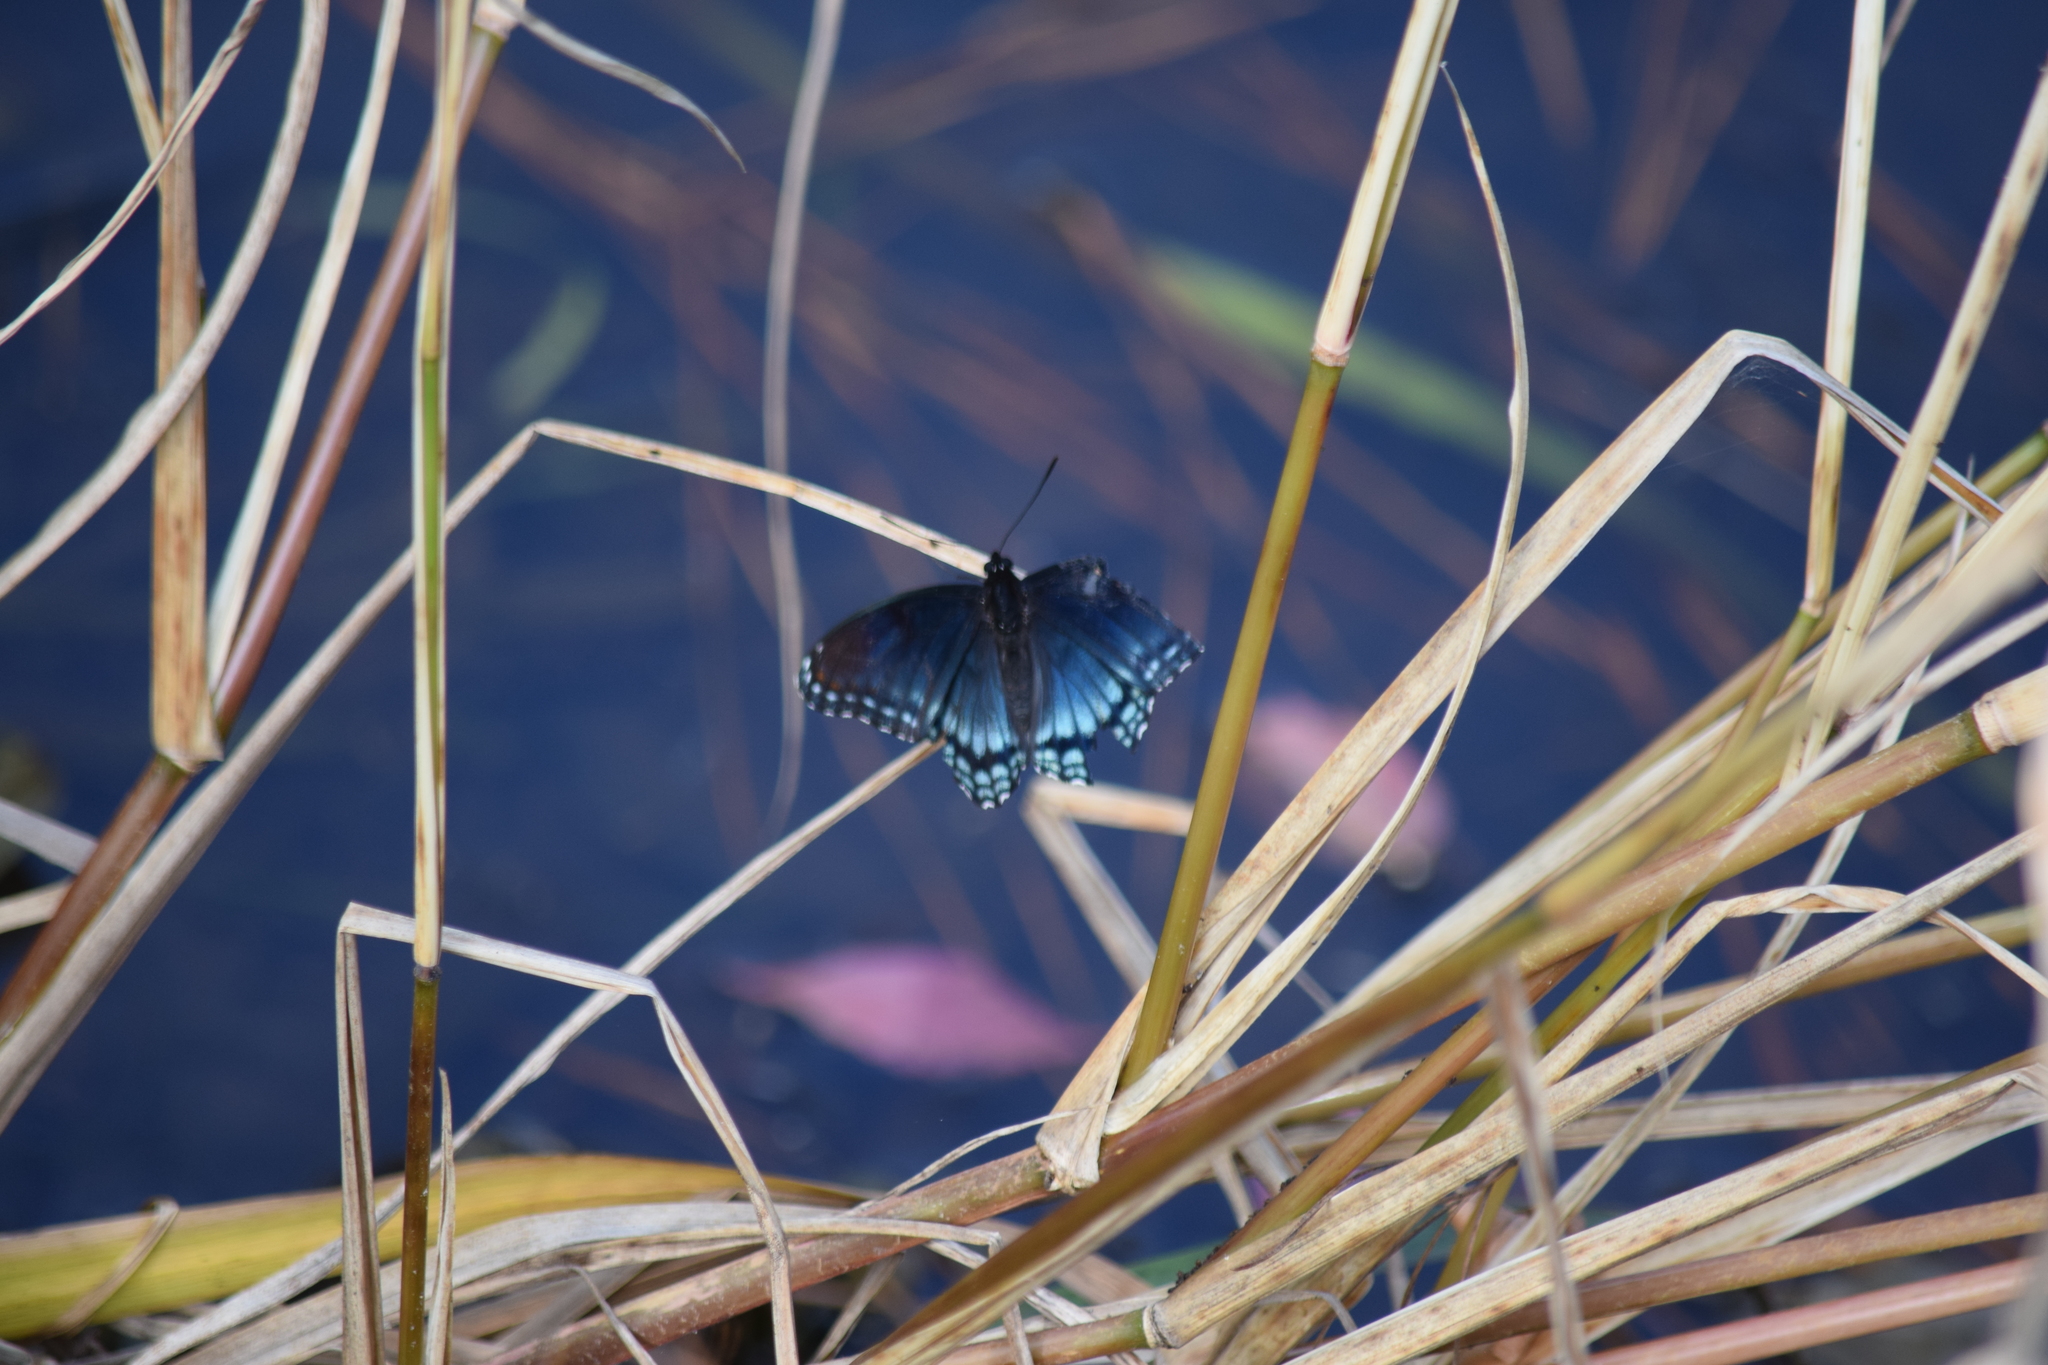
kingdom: Animalia
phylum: Arthropoda
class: Insecta
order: Lepidoptera
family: Nymphalidae
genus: Limenitis
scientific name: Limenitis astyanax
